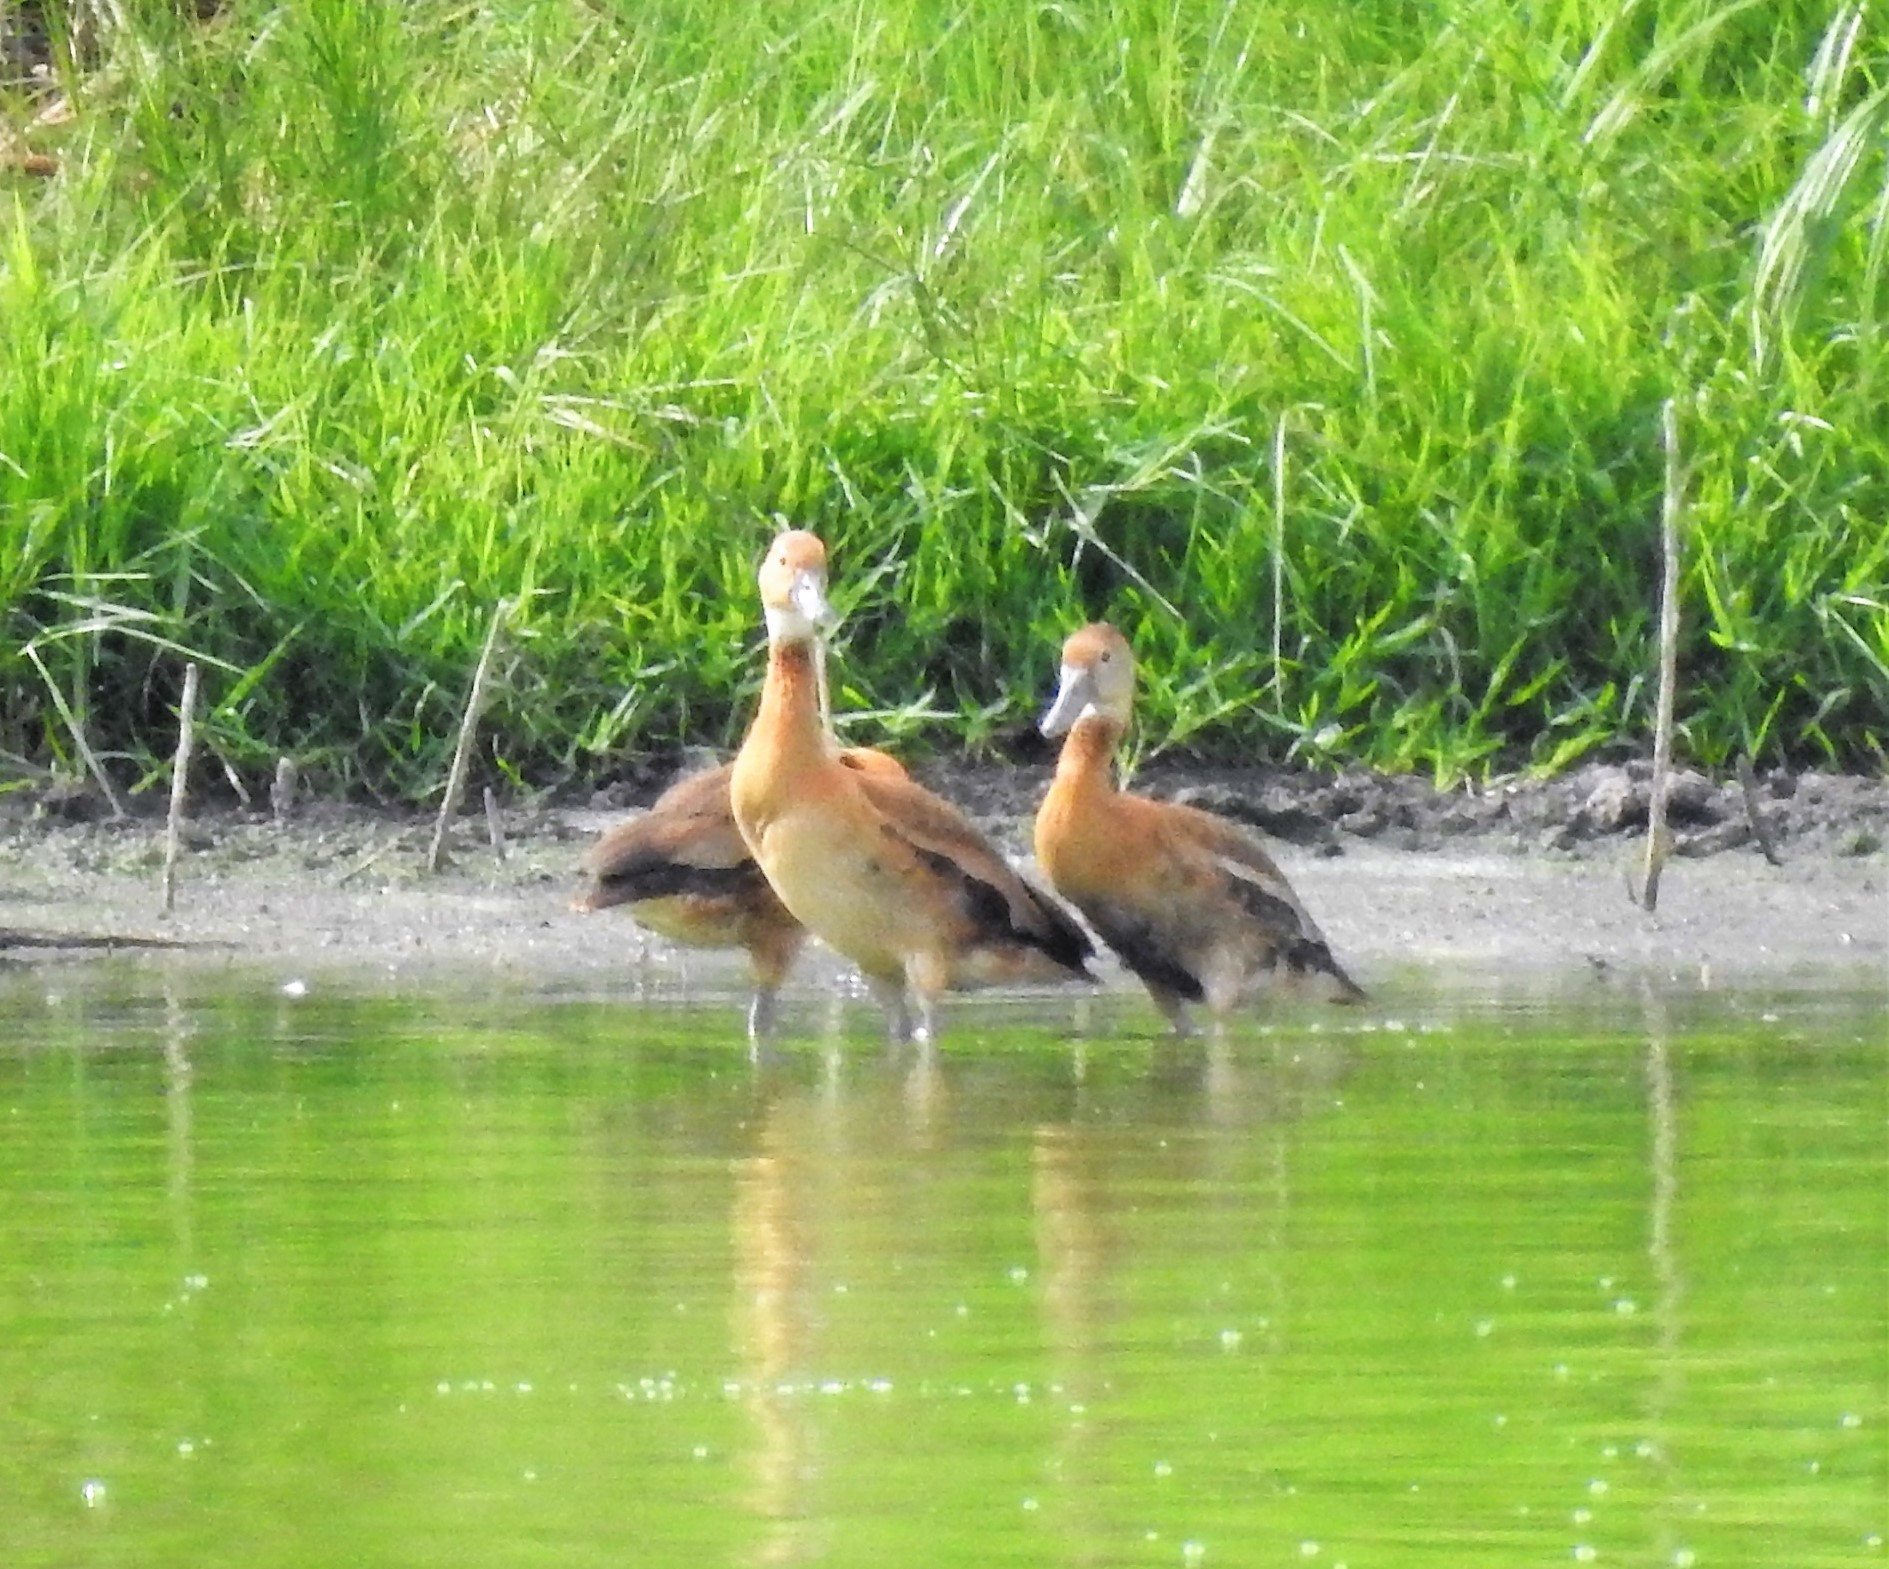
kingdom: Animalia
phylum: Chordata
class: Aves
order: Anseriformes
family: Anatidae
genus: Dendrocygna
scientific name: Dendrocygna autumnalis
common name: Black-bellied whistling duck
